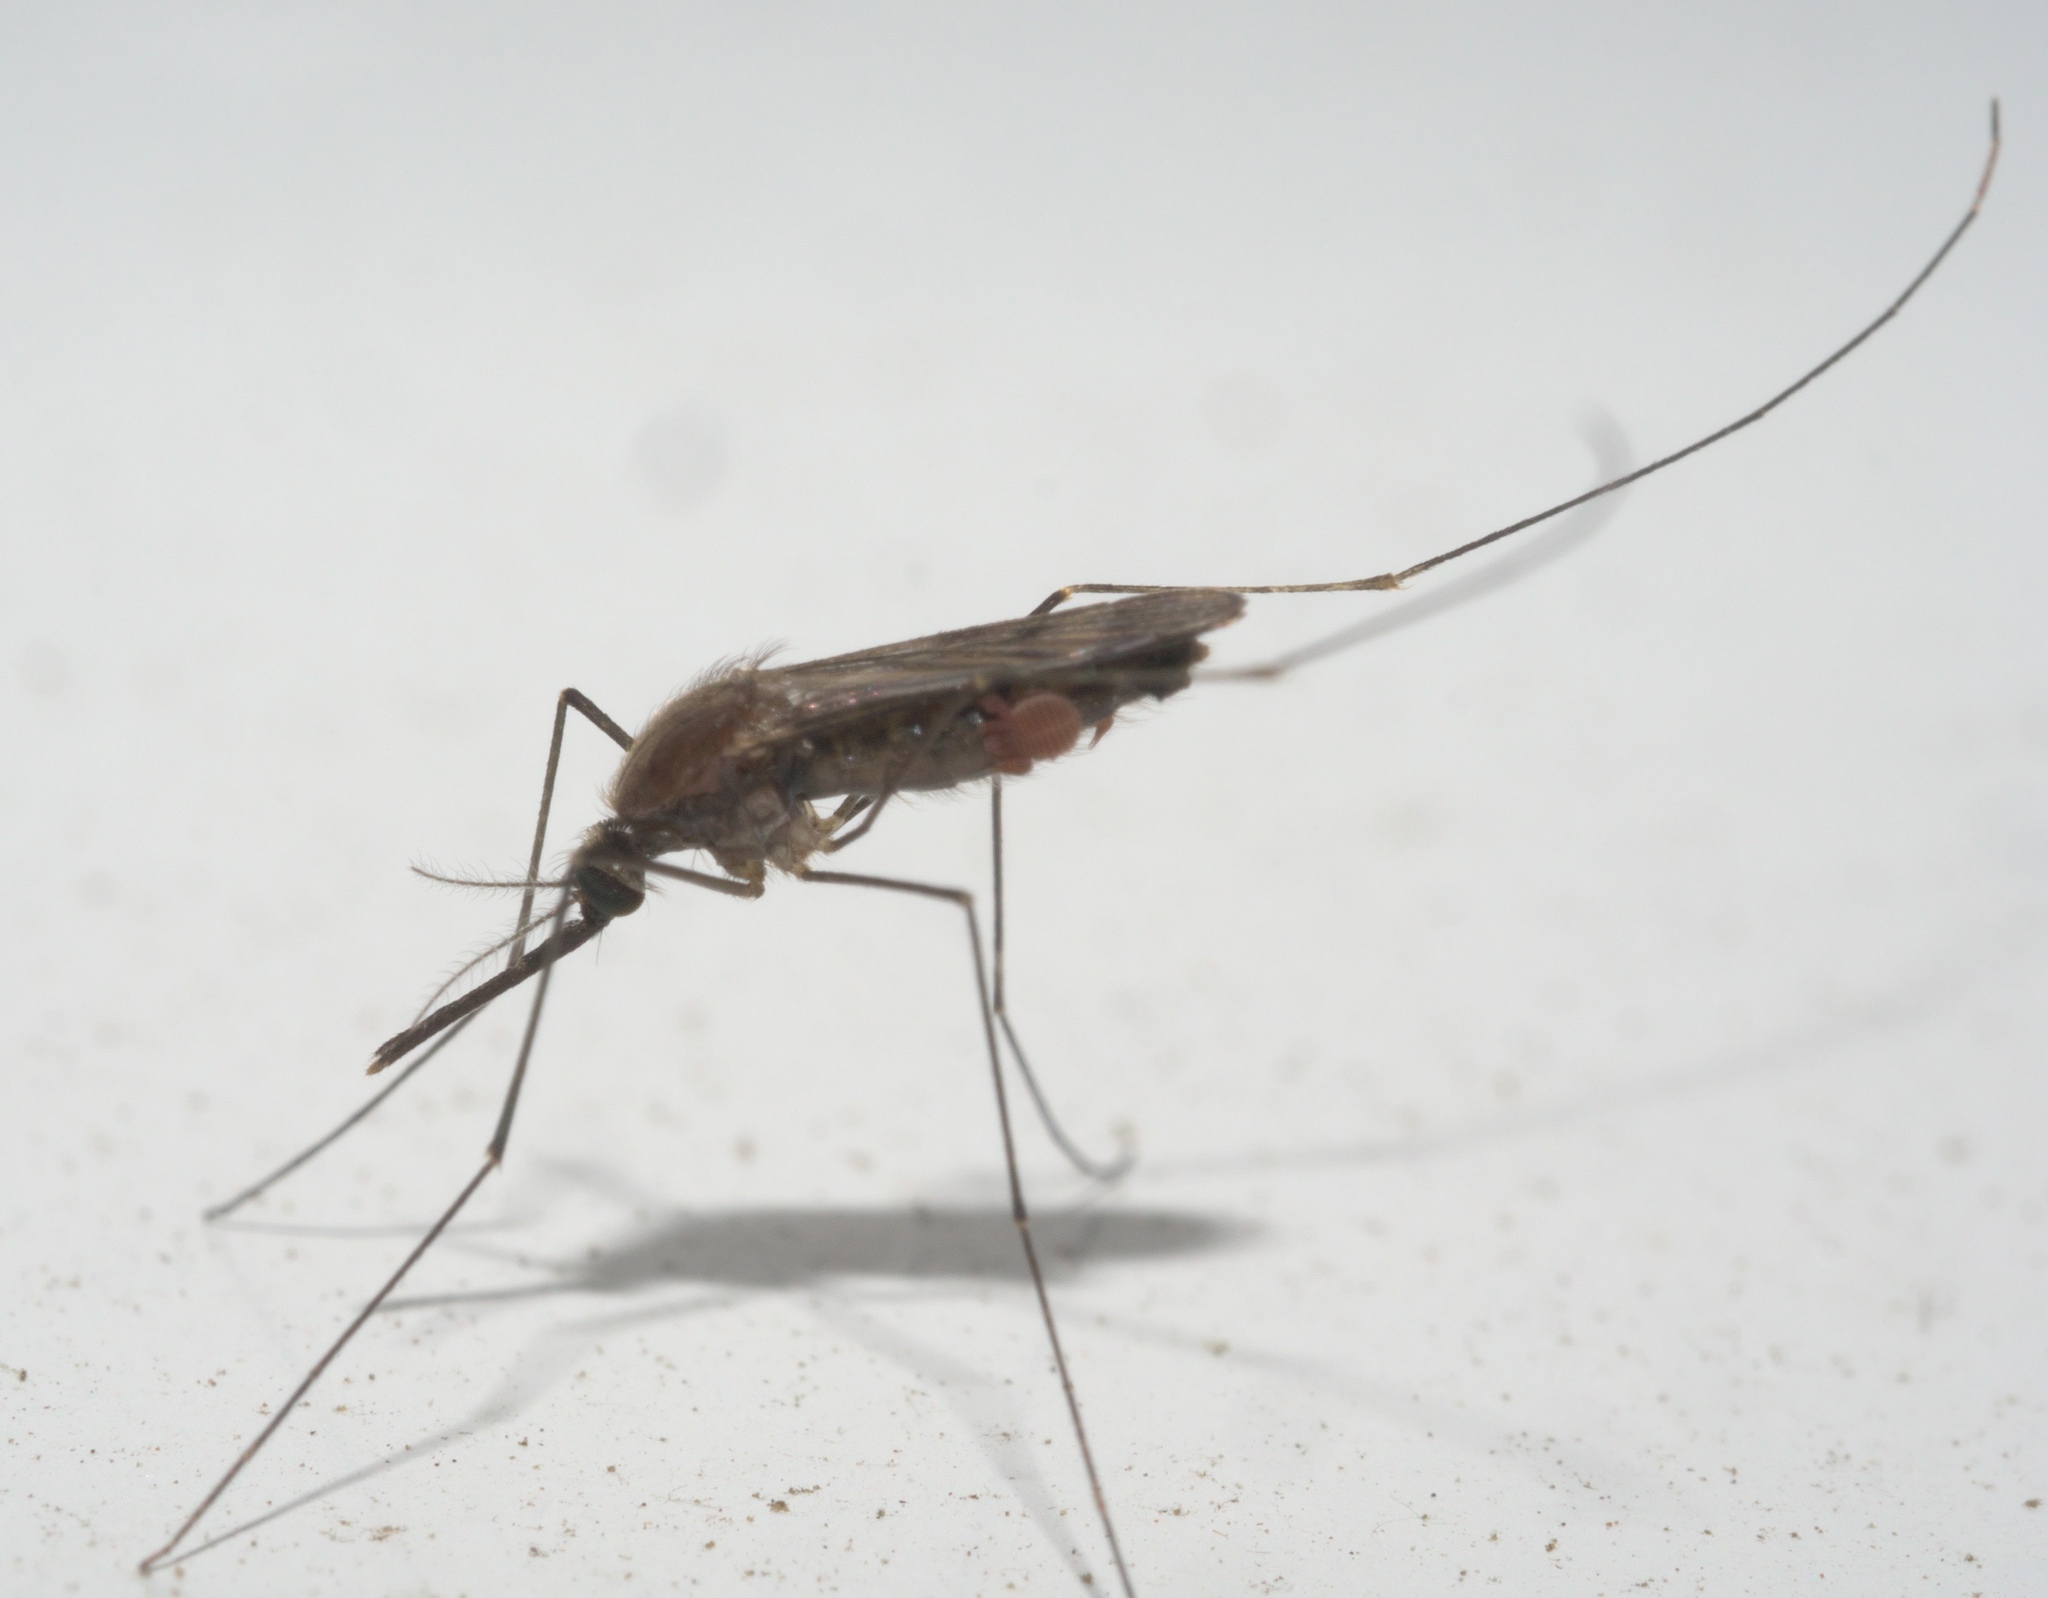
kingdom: Animalia
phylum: Arthropoda
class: Insecta
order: Diptera
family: Culicidae
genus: Anopheles
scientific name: Anopheles quadrimaculatus
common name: Common malaria mosquito
